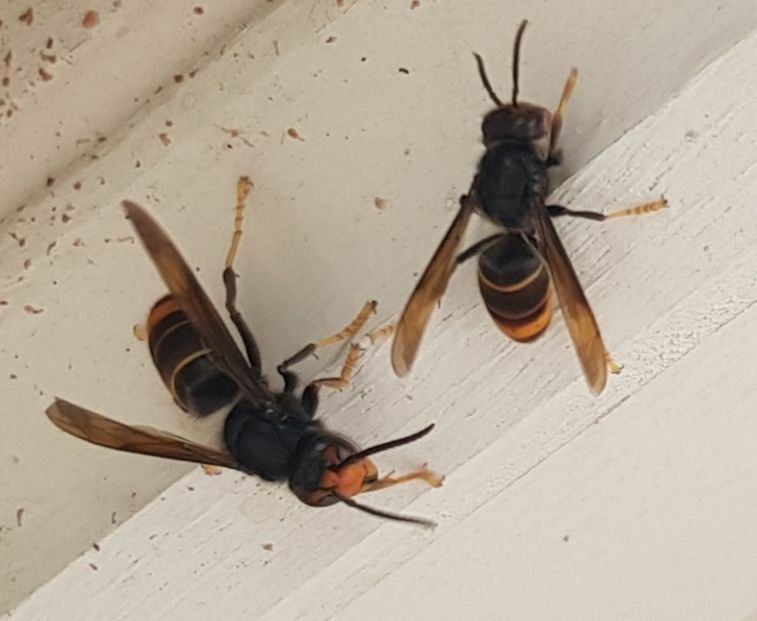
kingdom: Animalia
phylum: Arthropoda
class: Insecta
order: Hymenoptera
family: Vespidae
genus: Vespa
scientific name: Vespa velutina
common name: Asian hornet
